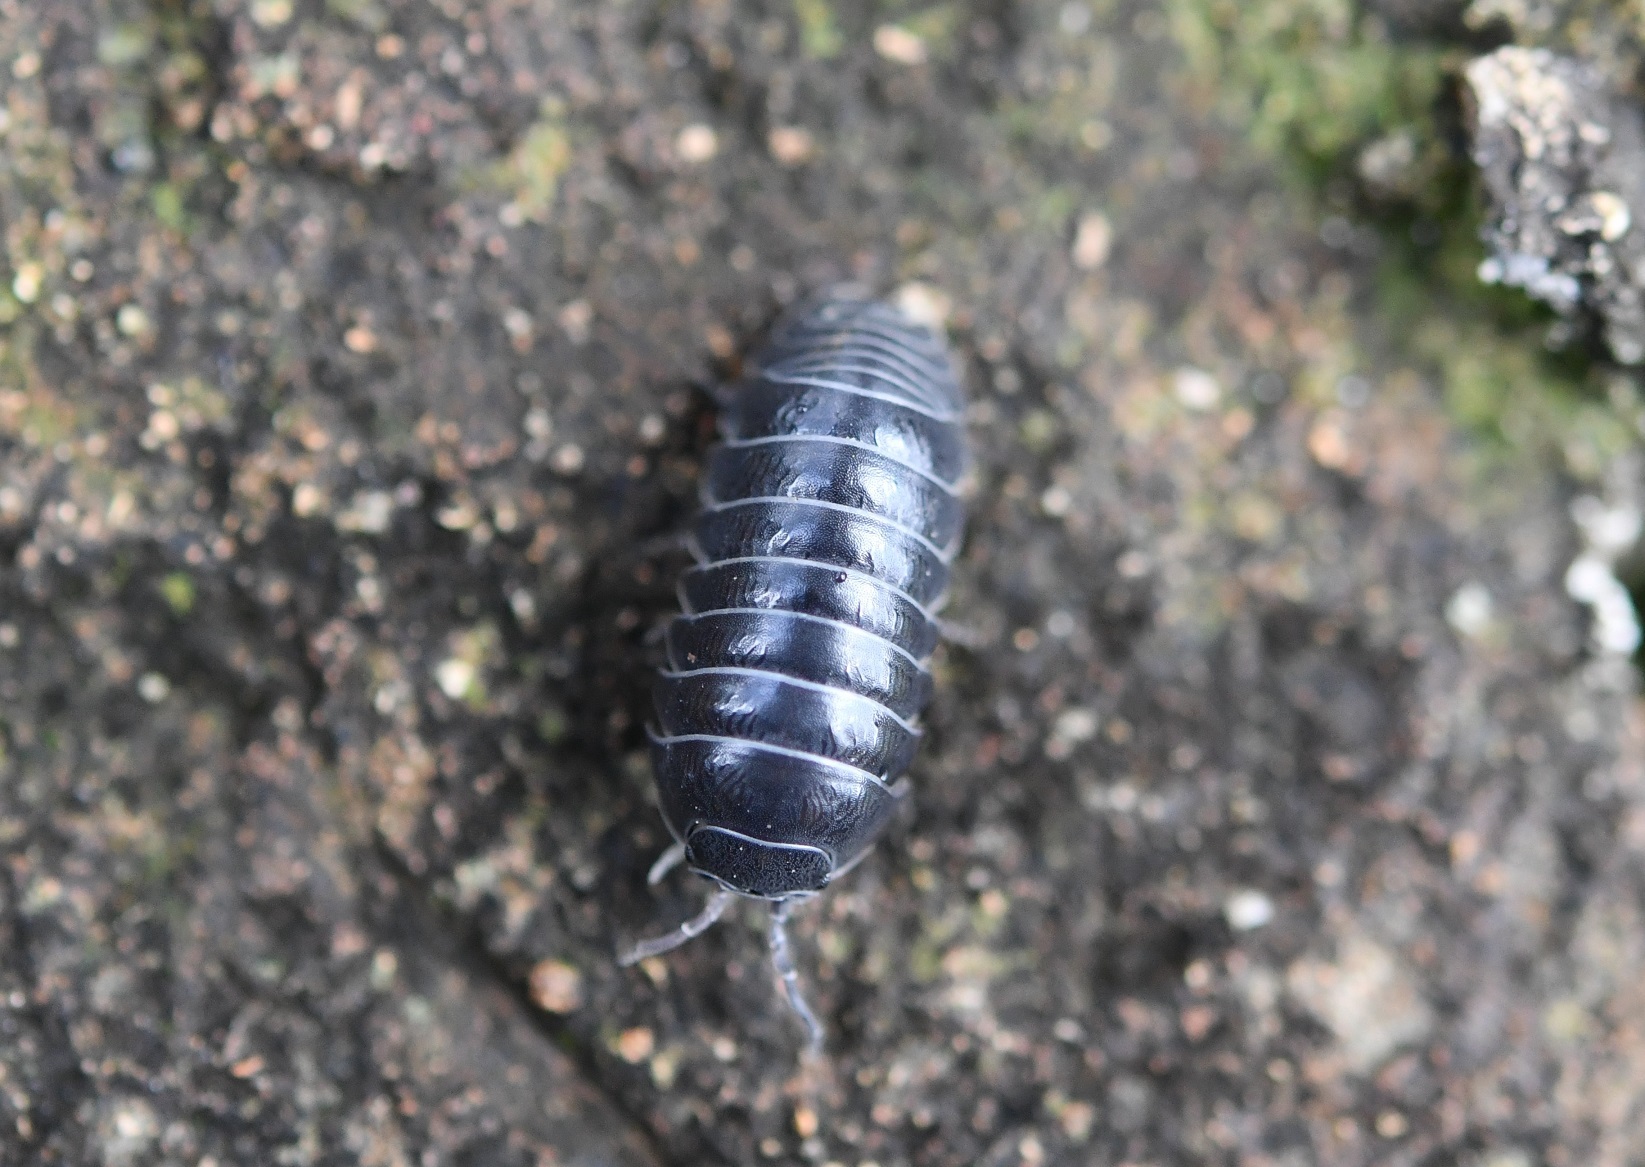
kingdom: Animalia
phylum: Arthropoda
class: Malacostraca
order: Isopoda
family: Armadillidiidae
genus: Armadillidium
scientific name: Armadillidium vulgare
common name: Common pill woodlouse
